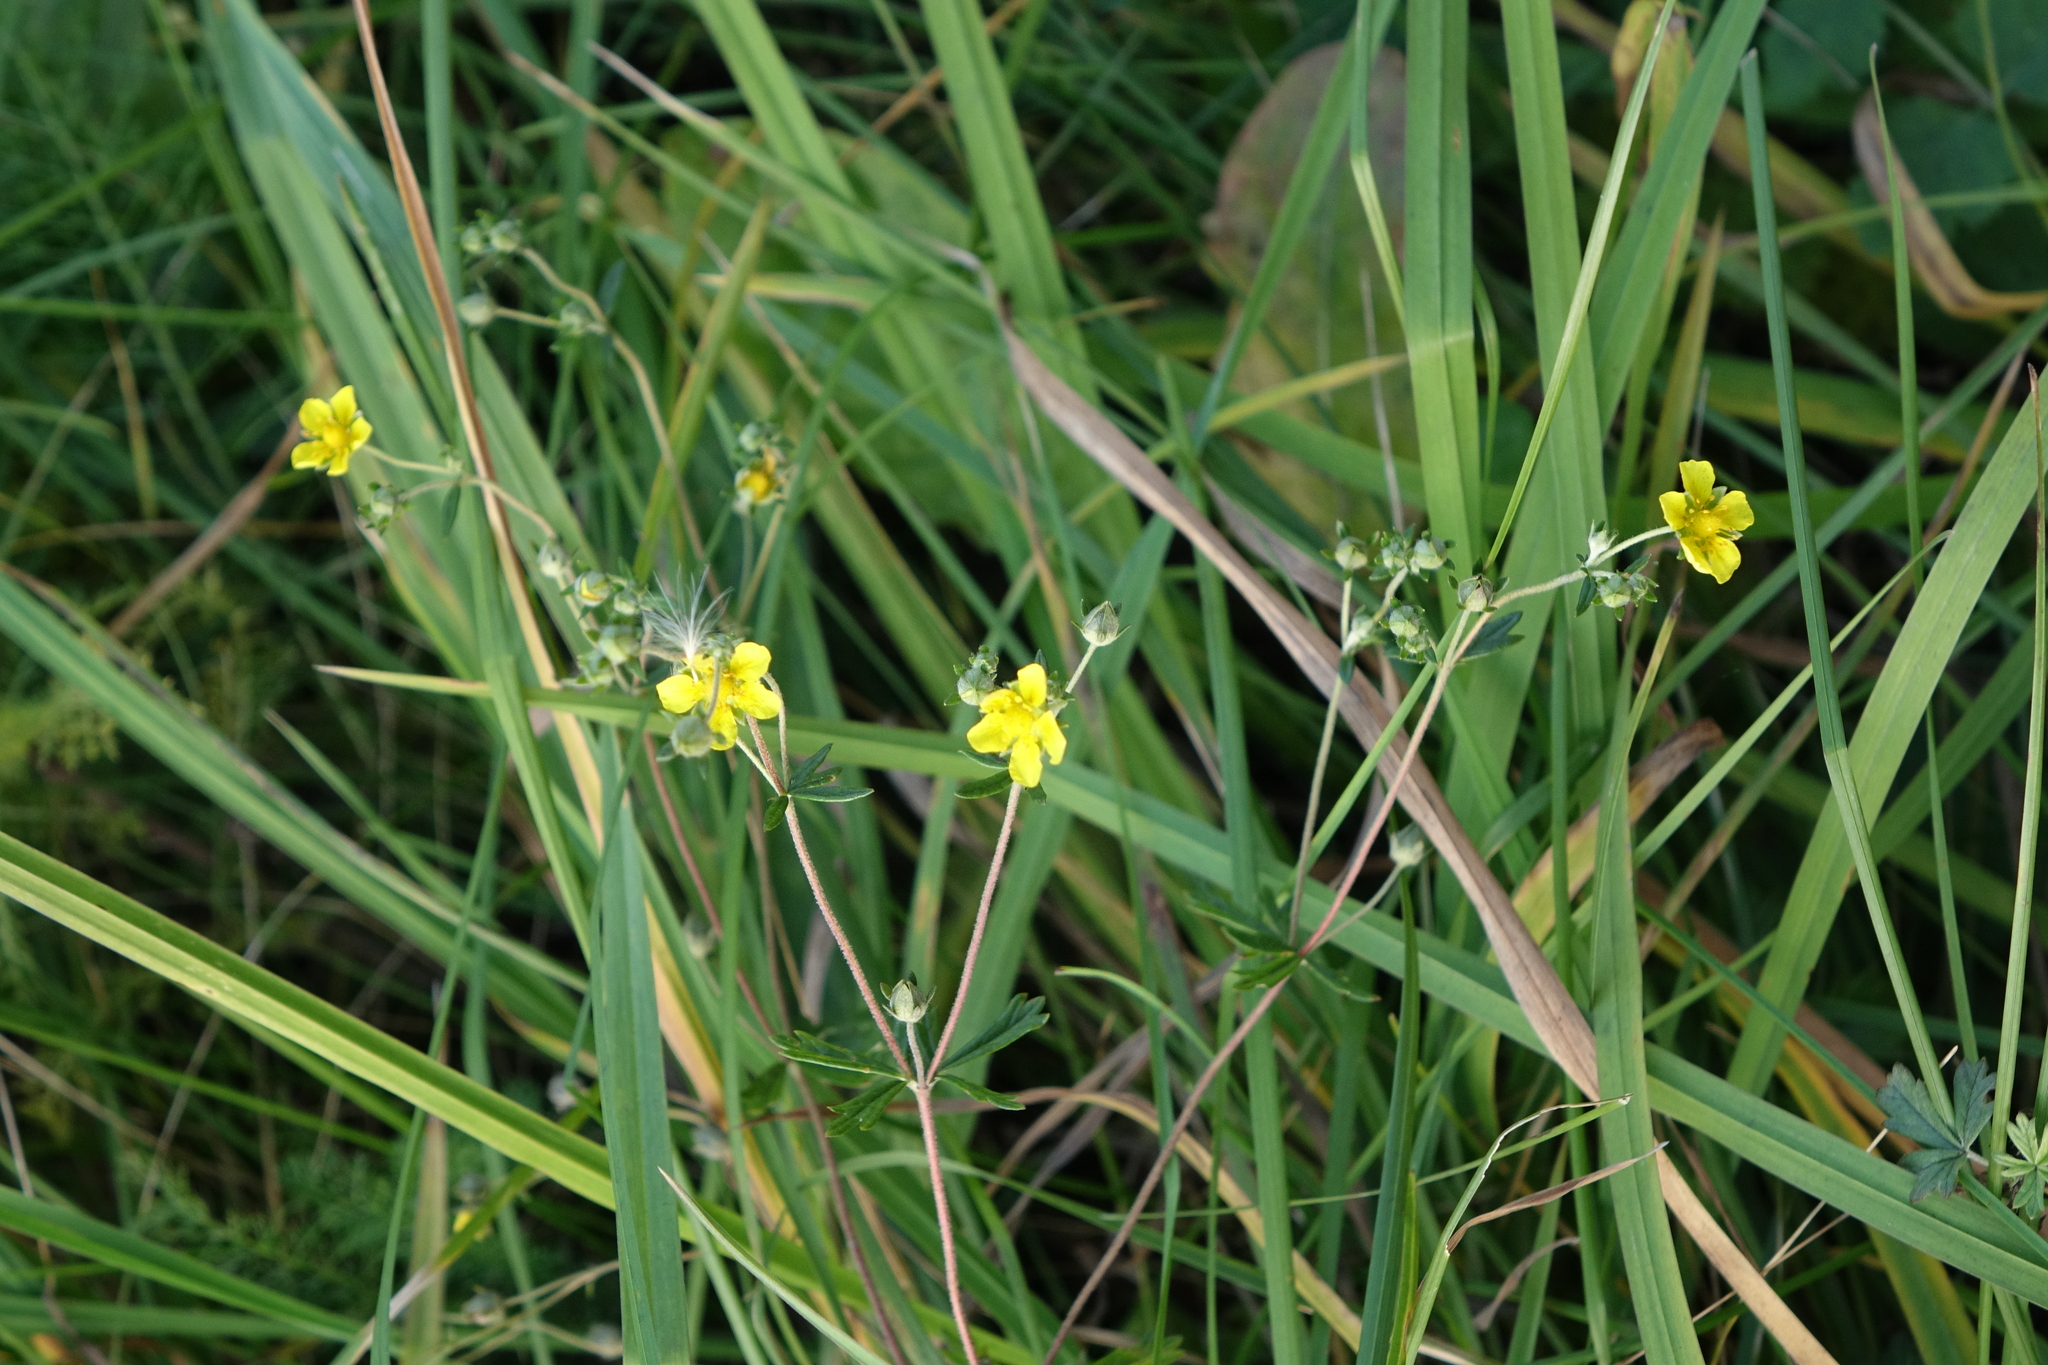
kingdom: Plantae
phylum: Tracheophyta
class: Magnoliopsida
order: Rosales
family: Rosaceae
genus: Potentilla
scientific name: Potentilla argentea
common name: Hoary cinquefoil
